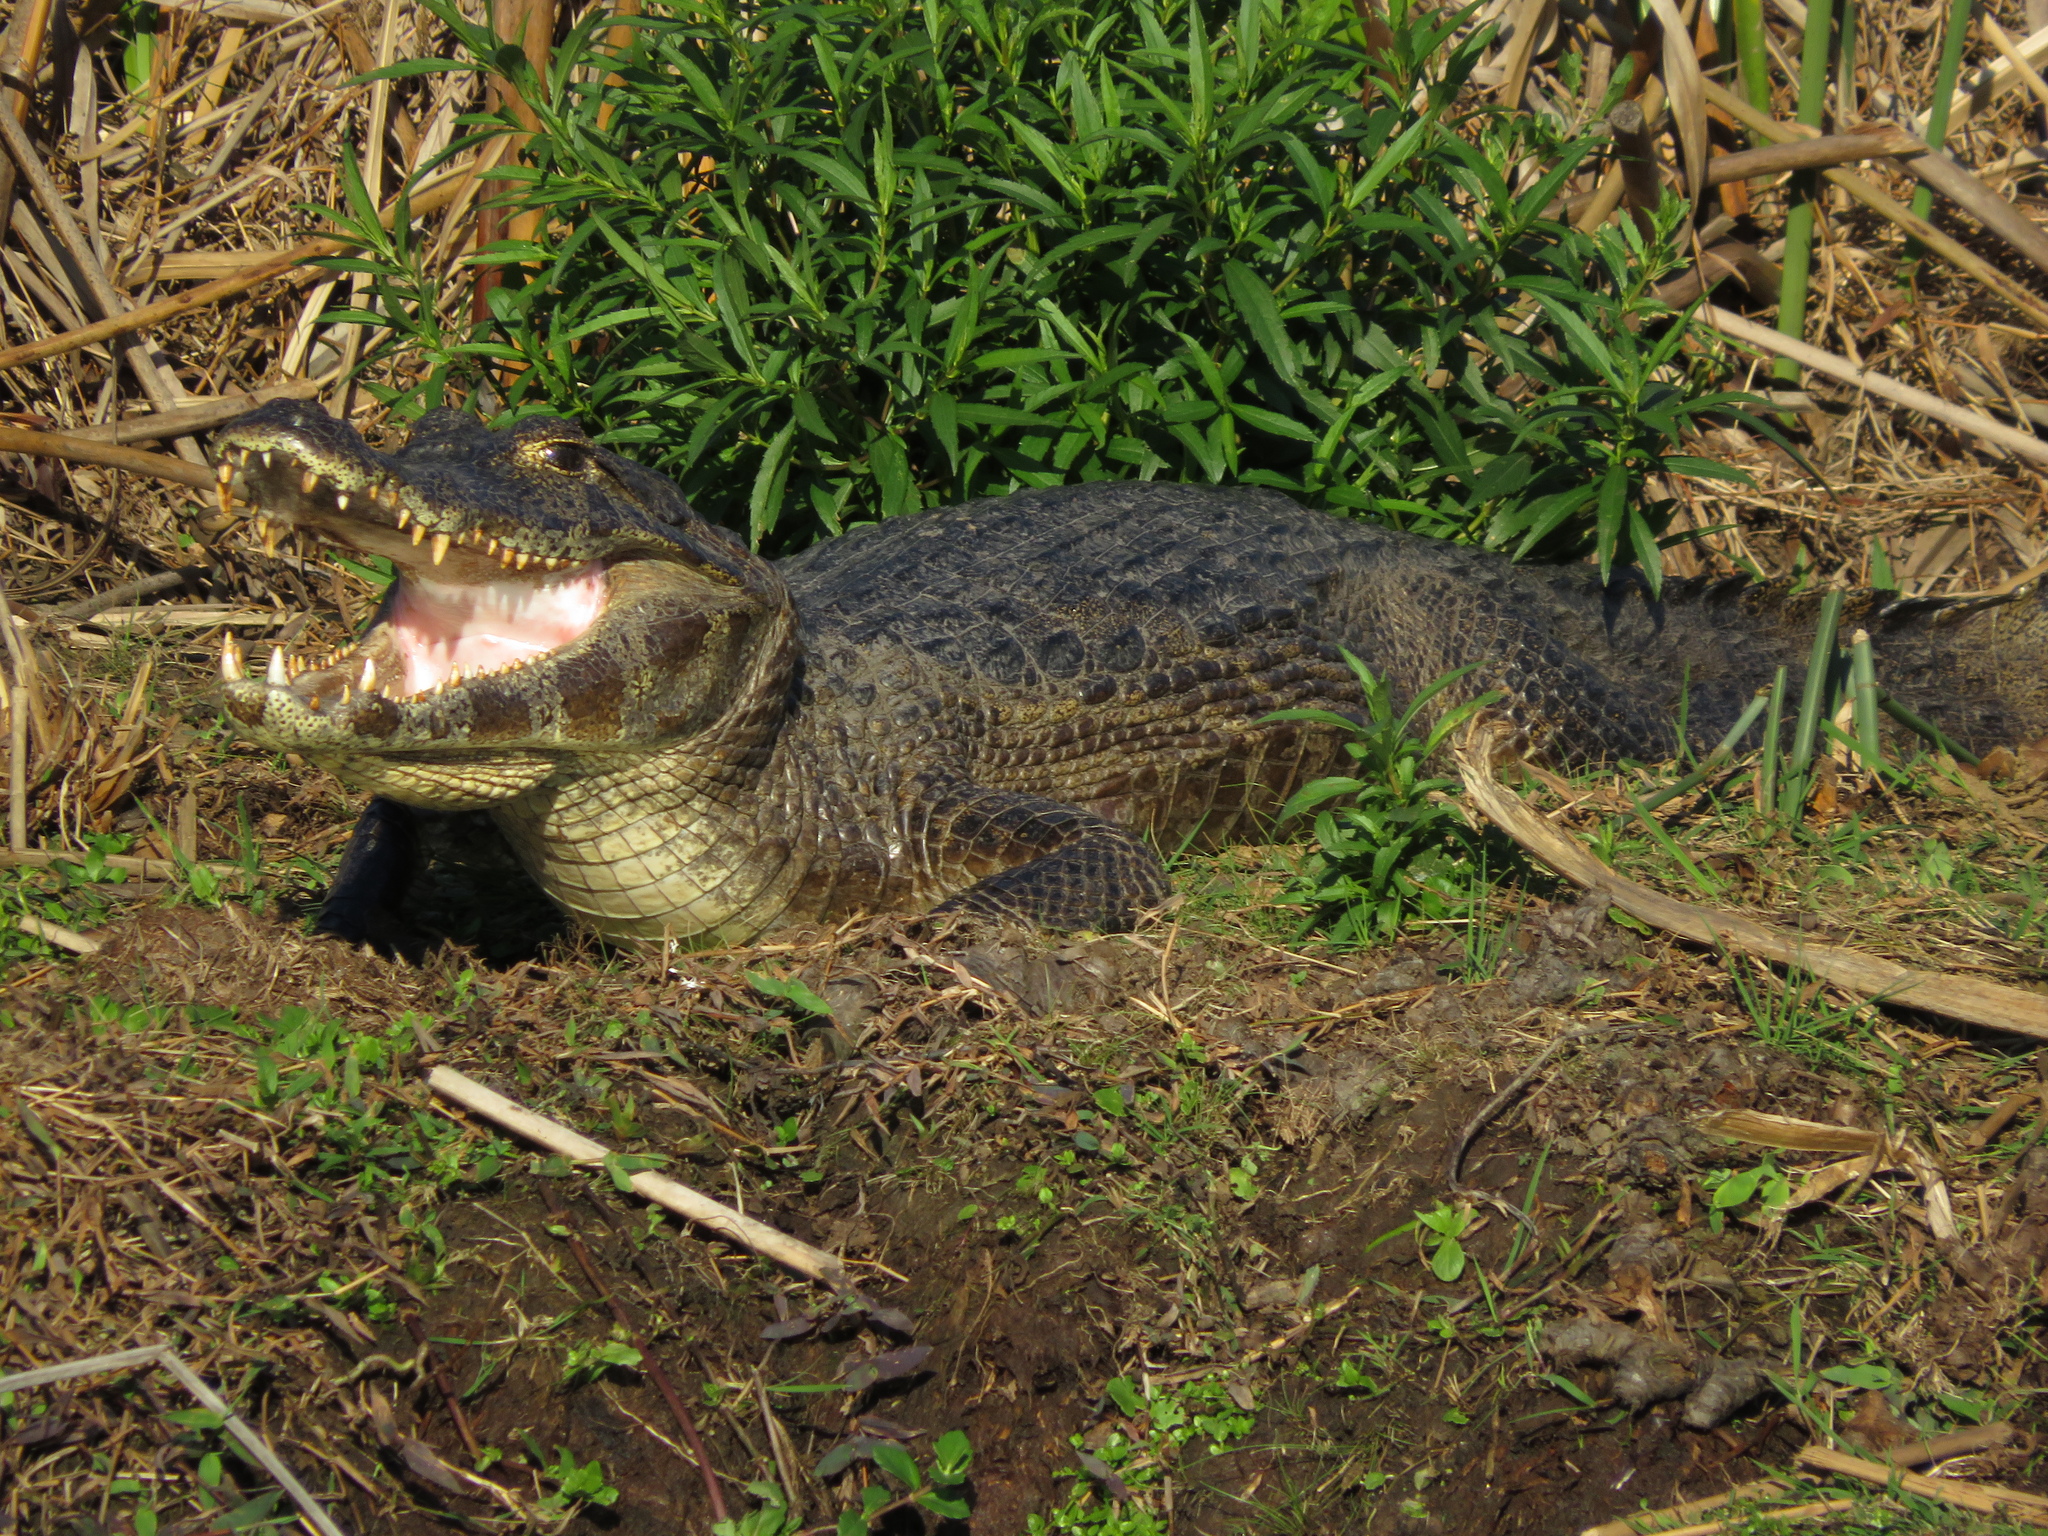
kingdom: Animalia
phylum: Chordata
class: Crocodylia
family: Alligatoridae
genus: Caiman
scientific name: Caiman yacare
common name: Yacare caiman
